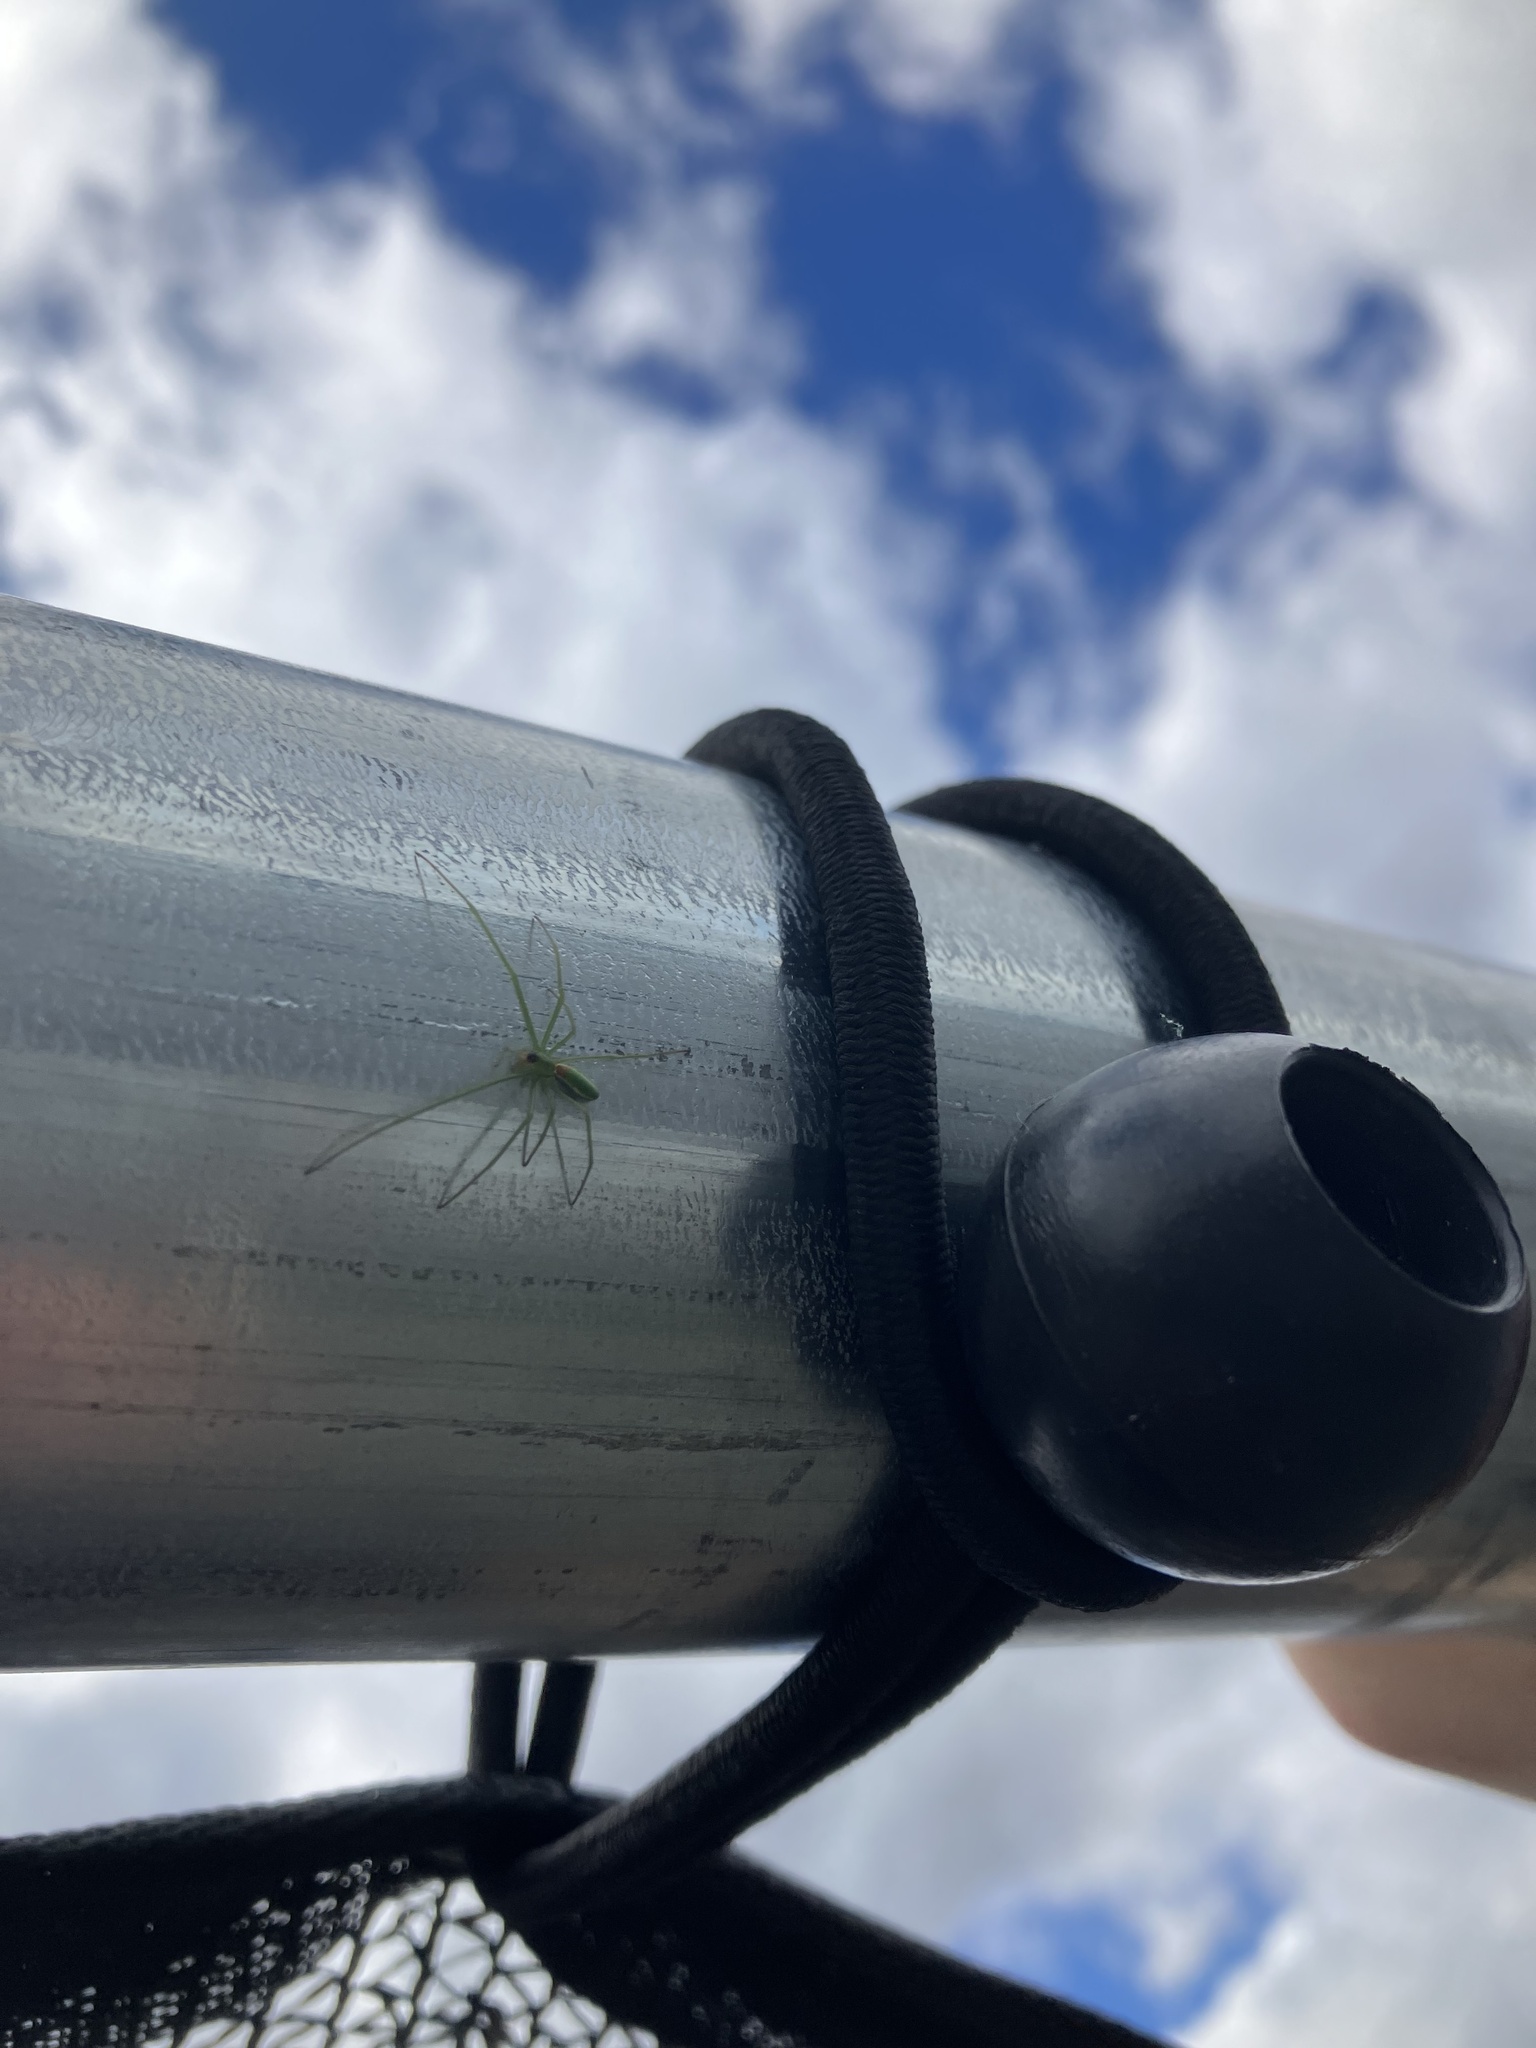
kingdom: Animalia
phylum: Arthropoda
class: Arachnida
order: Araneae
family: Tetragnathidae
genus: Tetragnatha
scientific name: Tetragnatha viridis
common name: Green long-jawed spider
